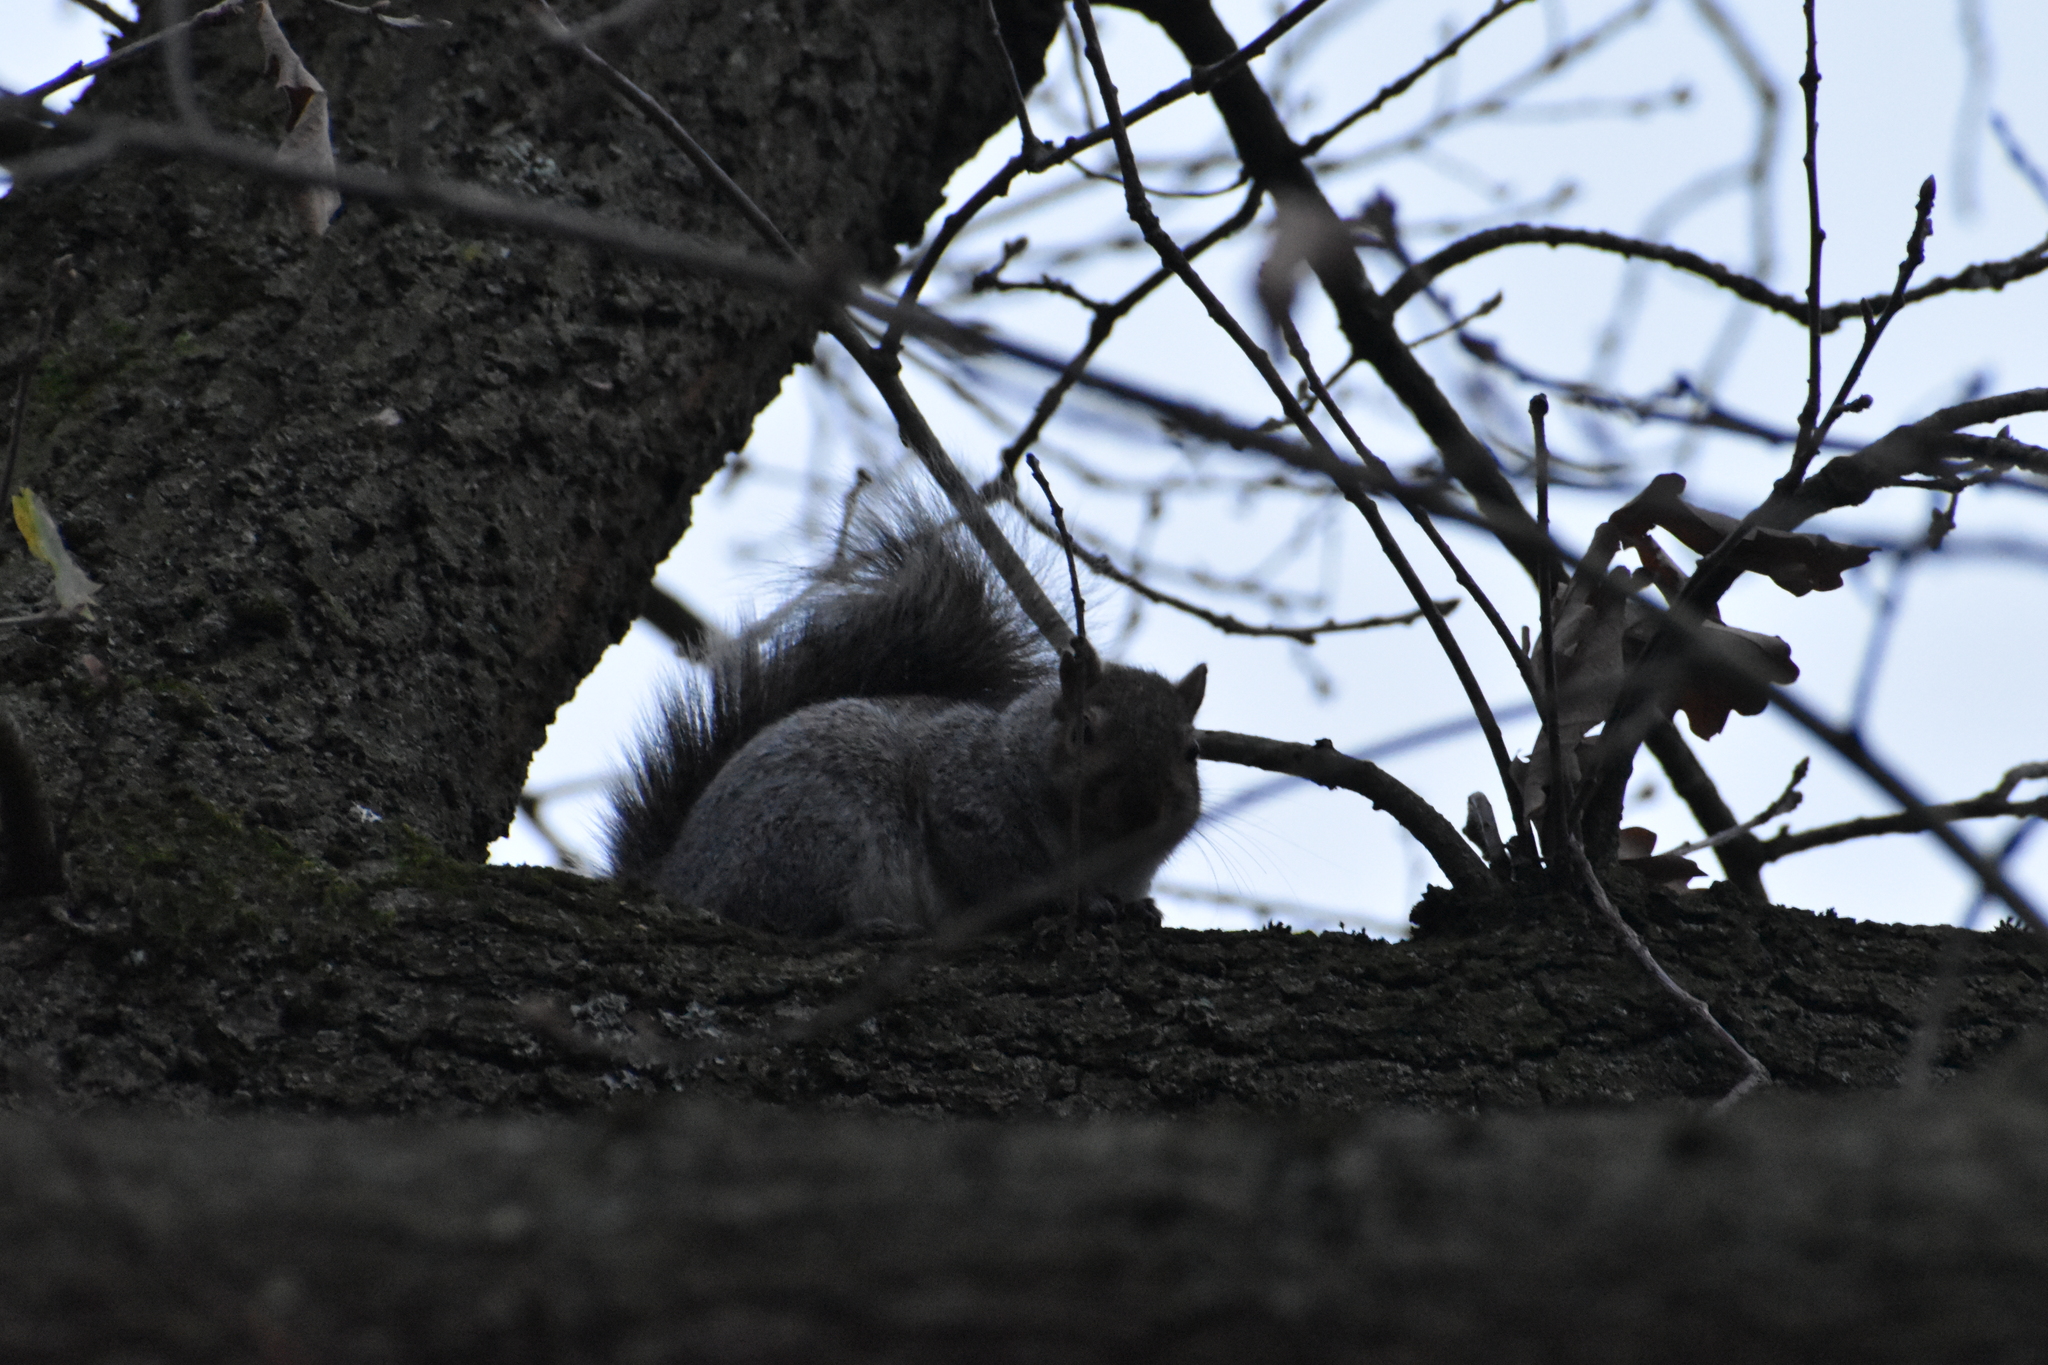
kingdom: Animalia
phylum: Chordata
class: Mammalia
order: Rodentia
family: Sciuridae
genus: Sciurus
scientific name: Sciurus carolinensis
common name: Eastern gray squirrel
